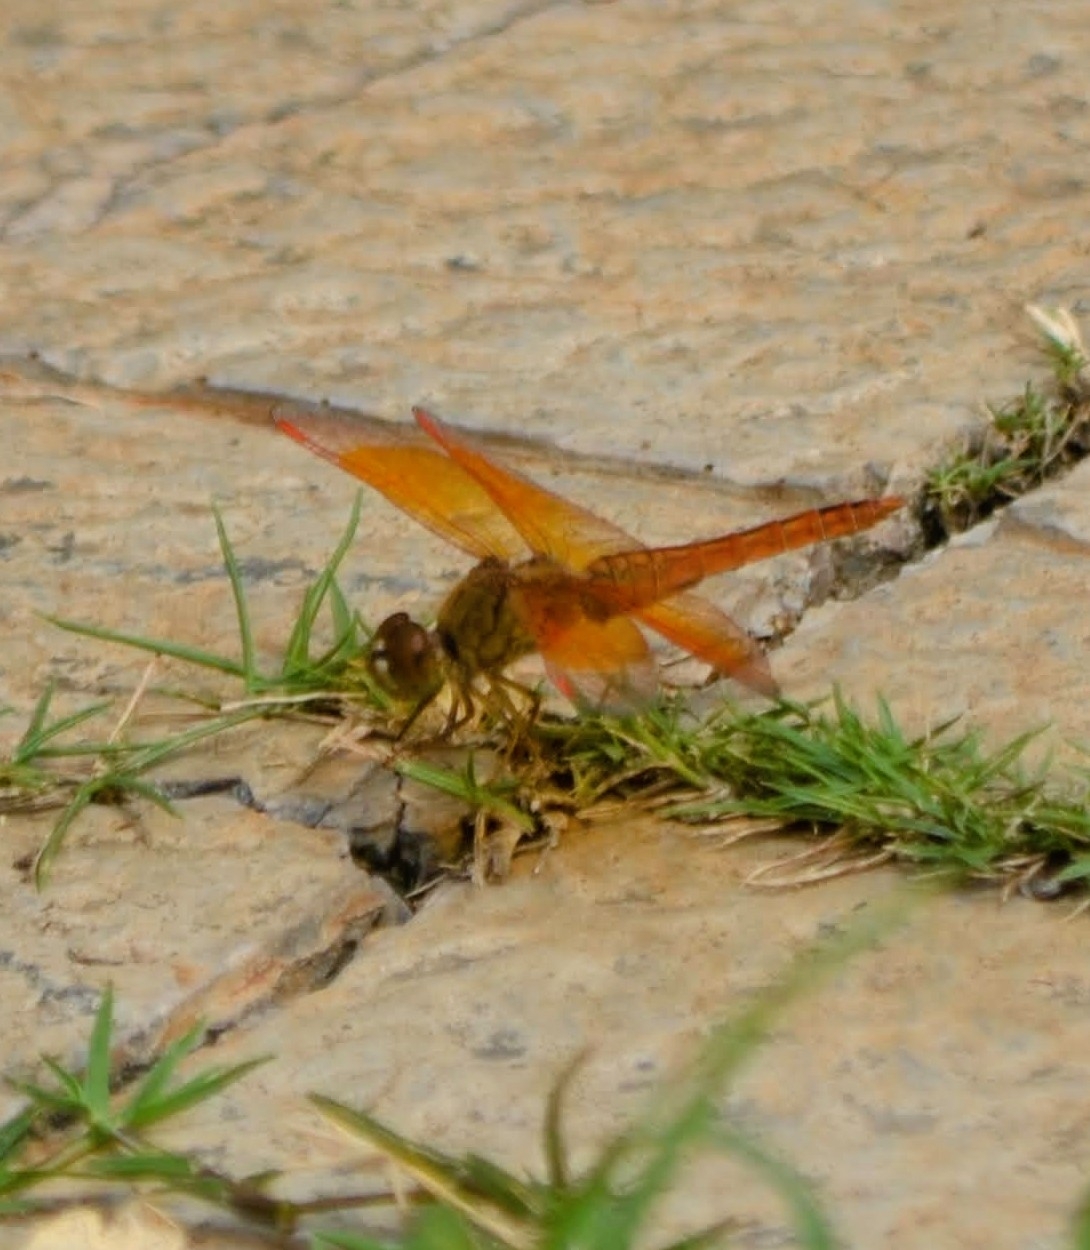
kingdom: Animalia
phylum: Arthropoda
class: Insecta
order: Odonata
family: Libellulidae
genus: Brachythemis
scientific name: Brachythemis contaminata
